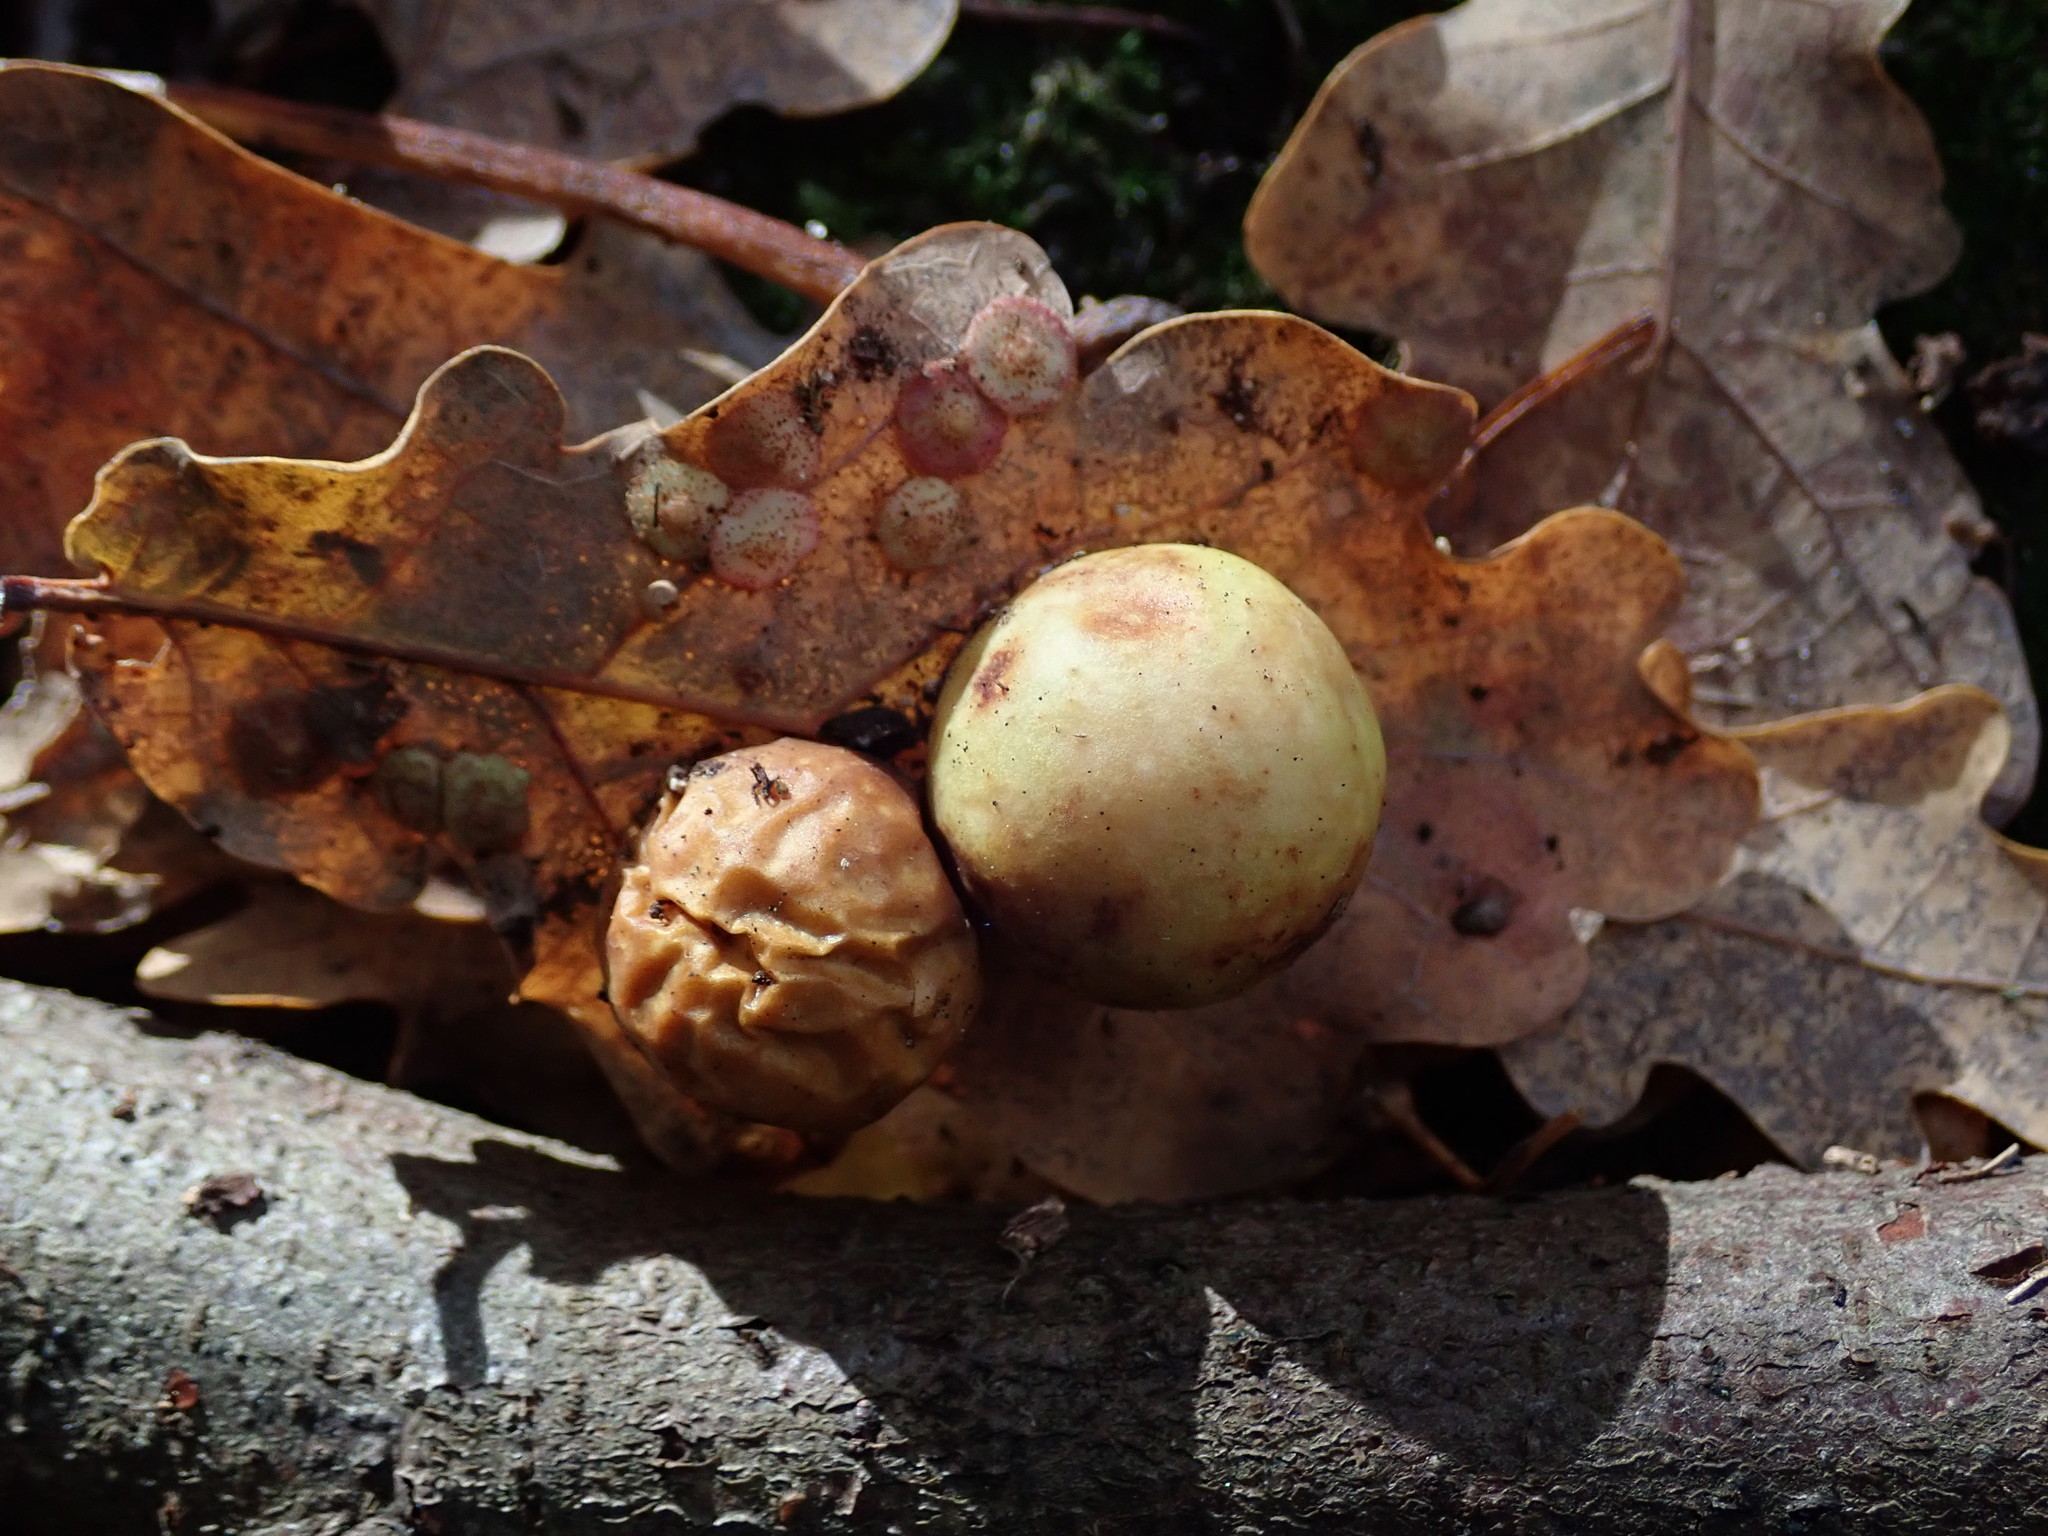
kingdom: Animalia
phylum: Arthropoda
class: Insecta
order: Hymenoptera
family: Cynipidae
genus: Cynips
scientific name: Cynips quercusfolii
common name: Cherry gall
